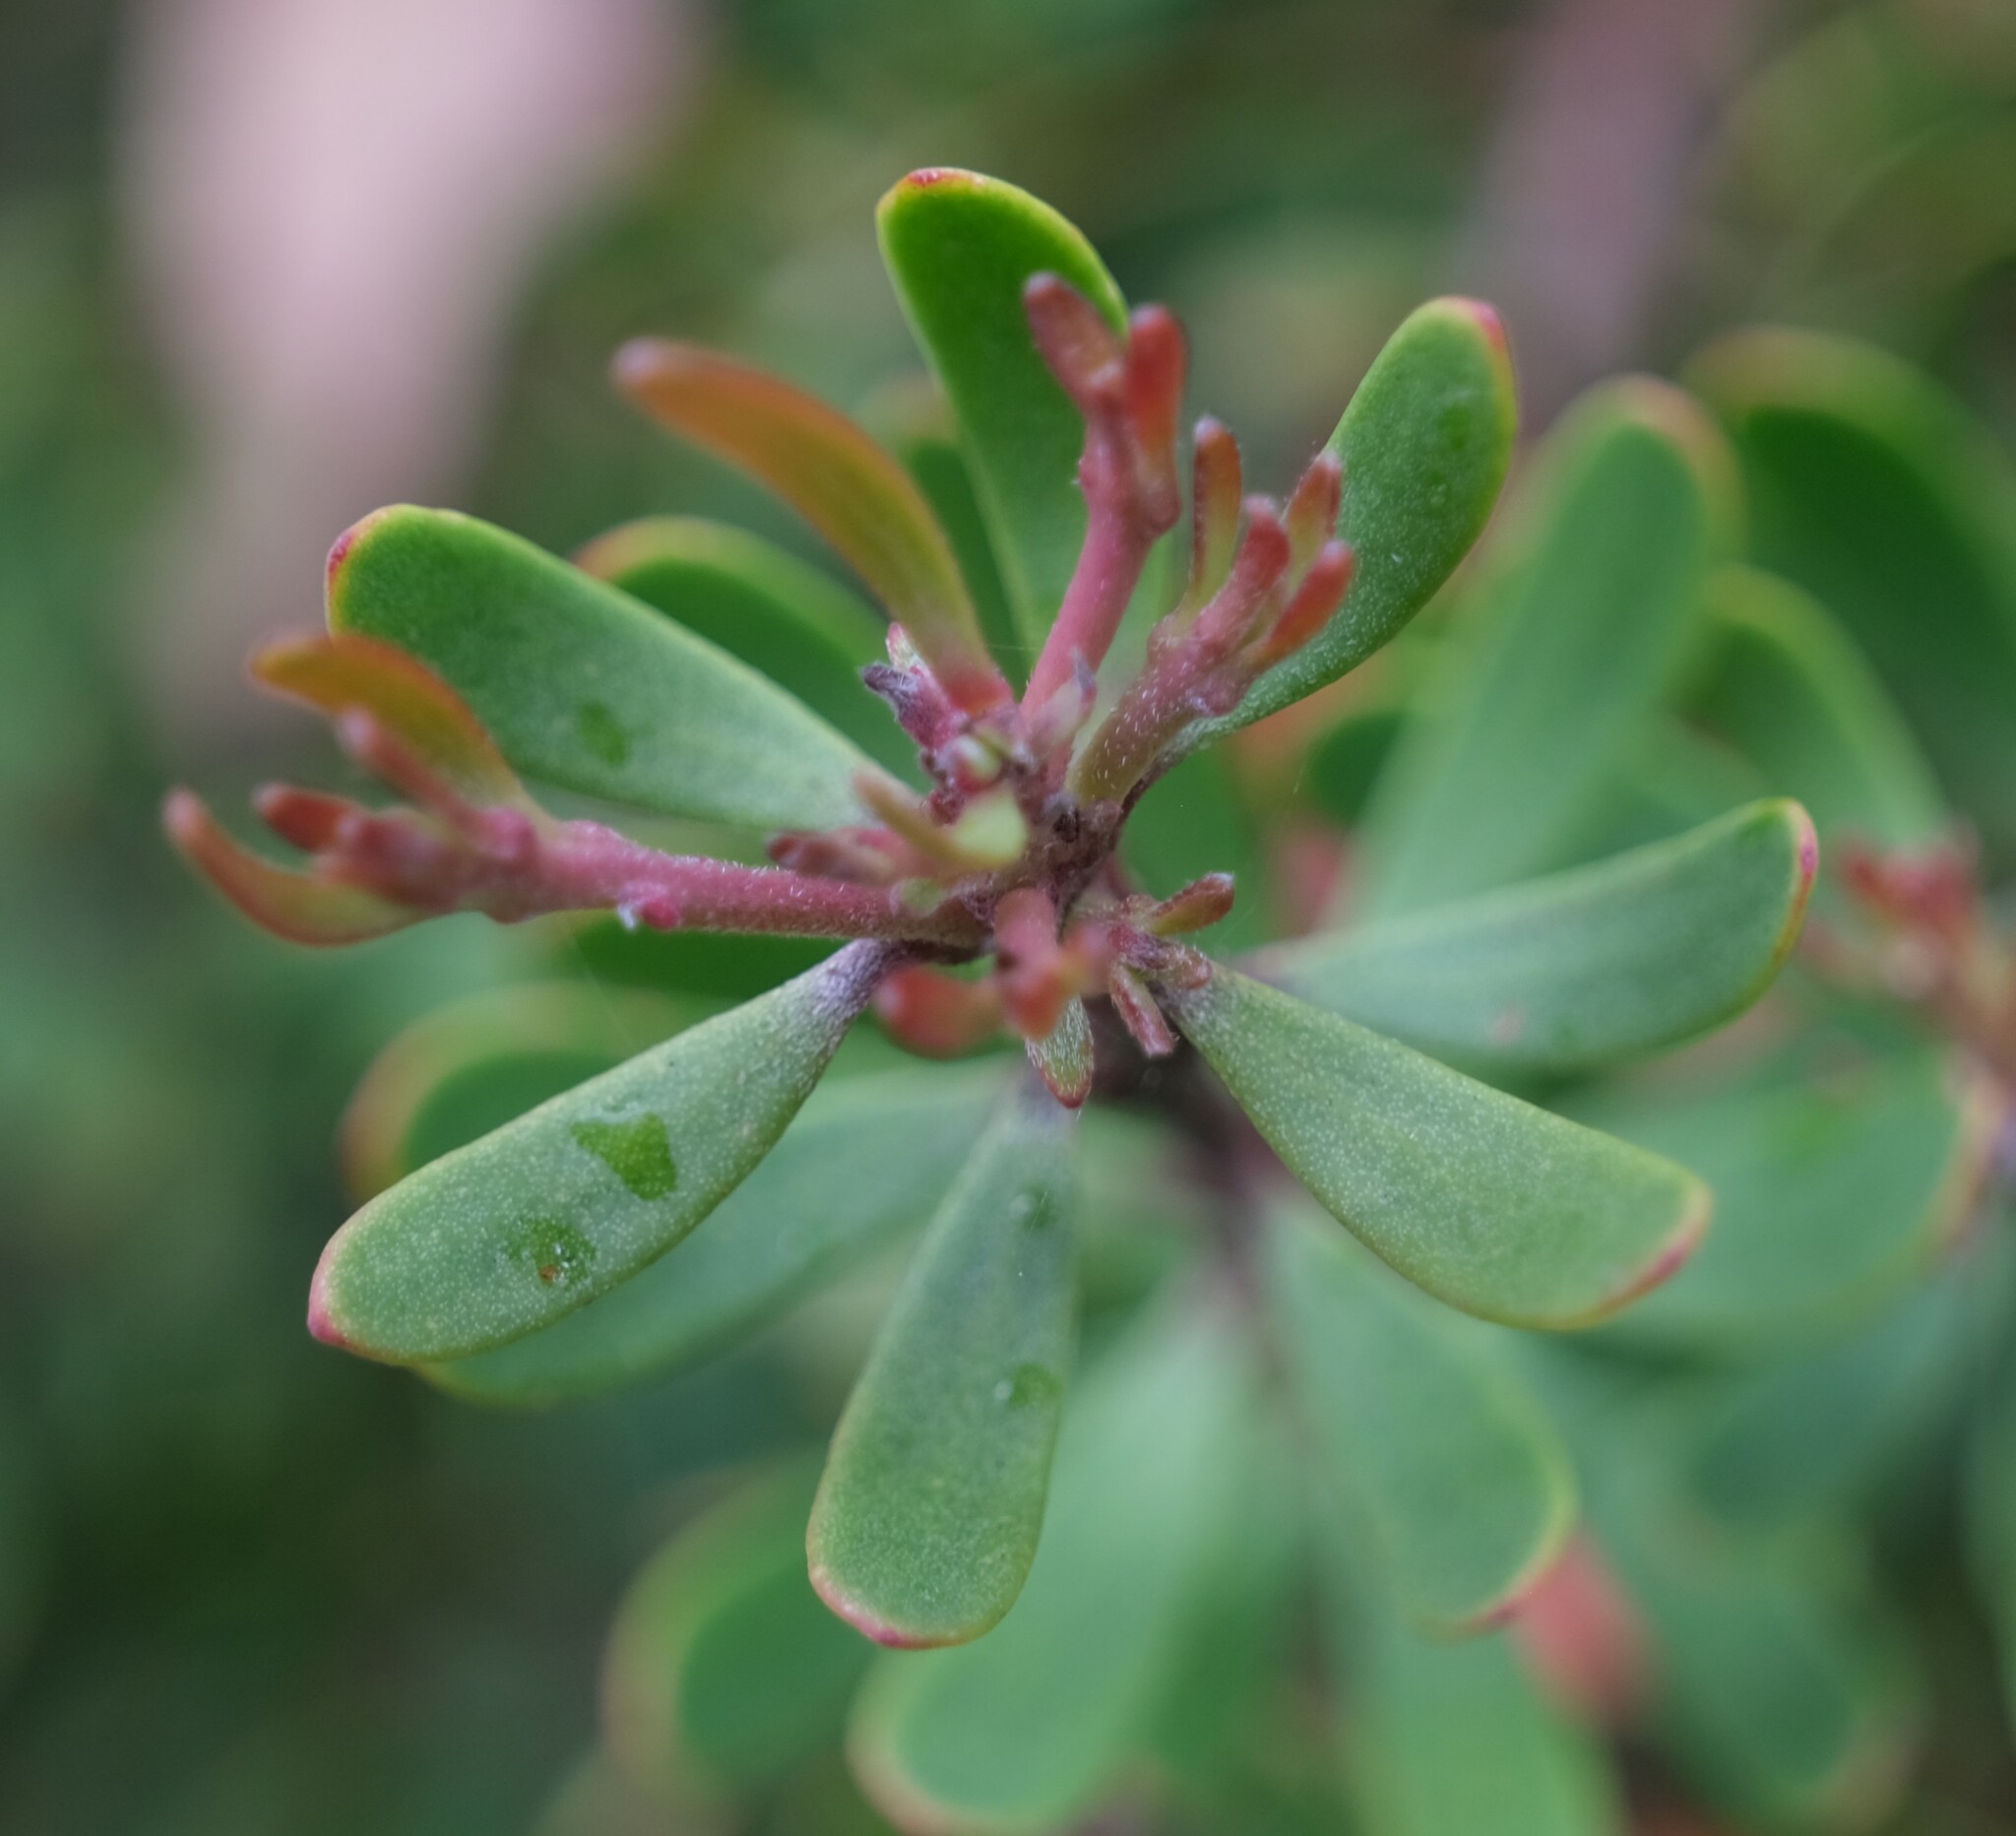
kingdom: Plantae
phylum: Tracheophyta
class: Magnoliopsida
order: Proteales
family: Proteaceae
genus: Persoonia
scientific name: Persoonia gunnii
